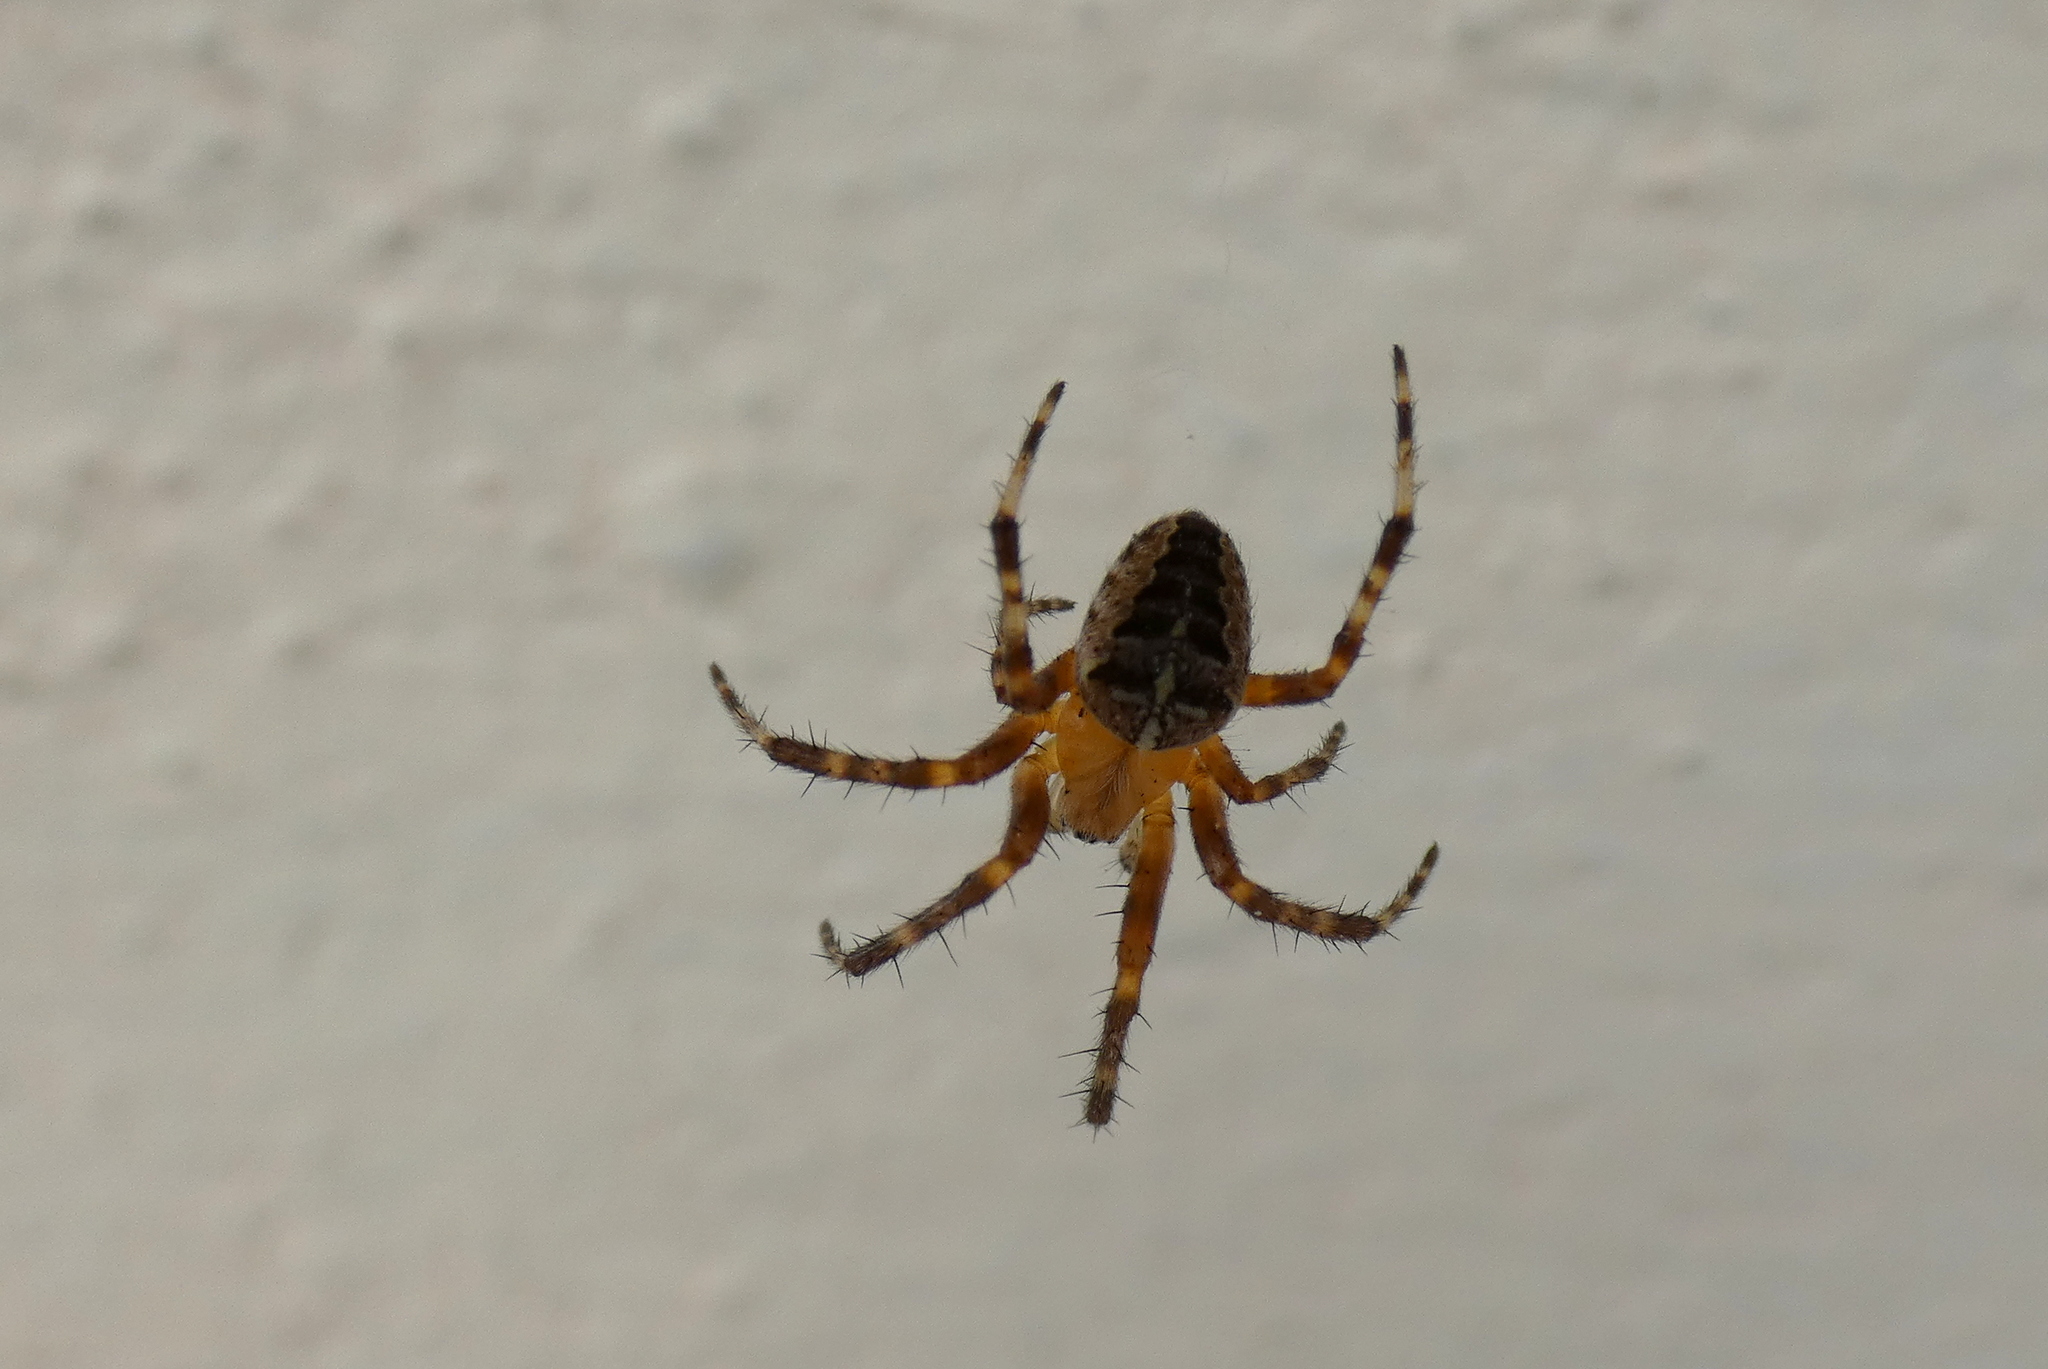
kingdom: Animalia
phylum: Arthropoda
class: Arachnida
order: Araneae
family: Araneidae
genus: Araneus
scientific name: Araneus diadematus
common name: Cross orbweaver
